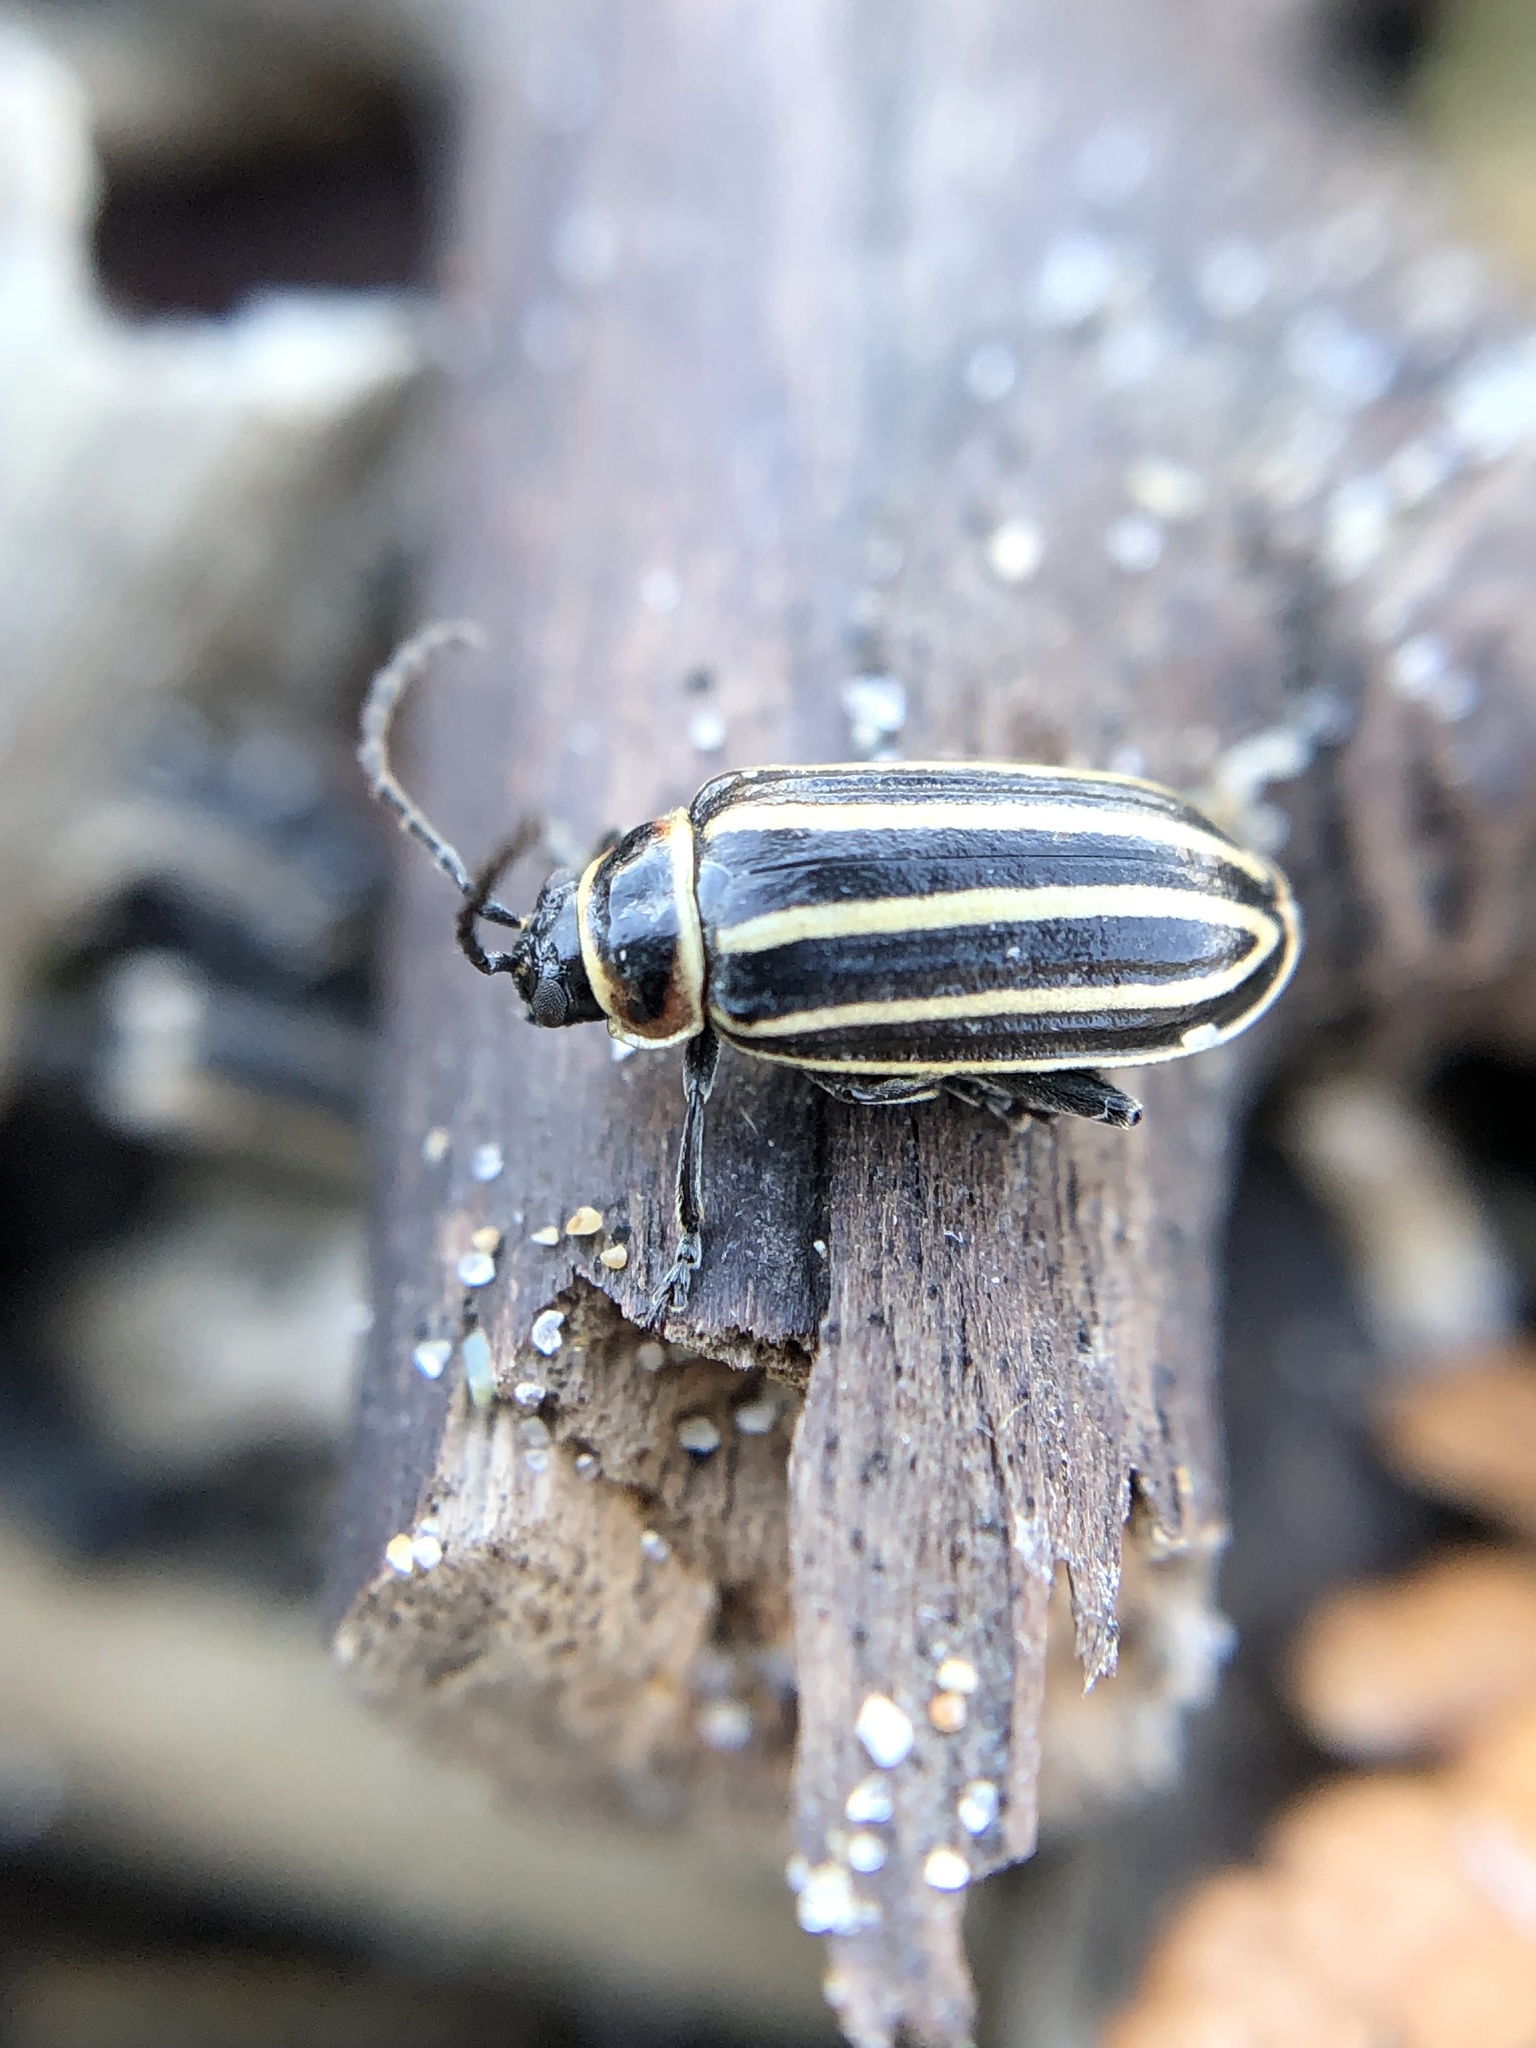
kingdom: Animalia
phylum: Arthropoda
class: Insecta
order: Coleoptera
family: Chrysomelidae
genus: Disonycha
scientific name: Disonycha pensylvanica
